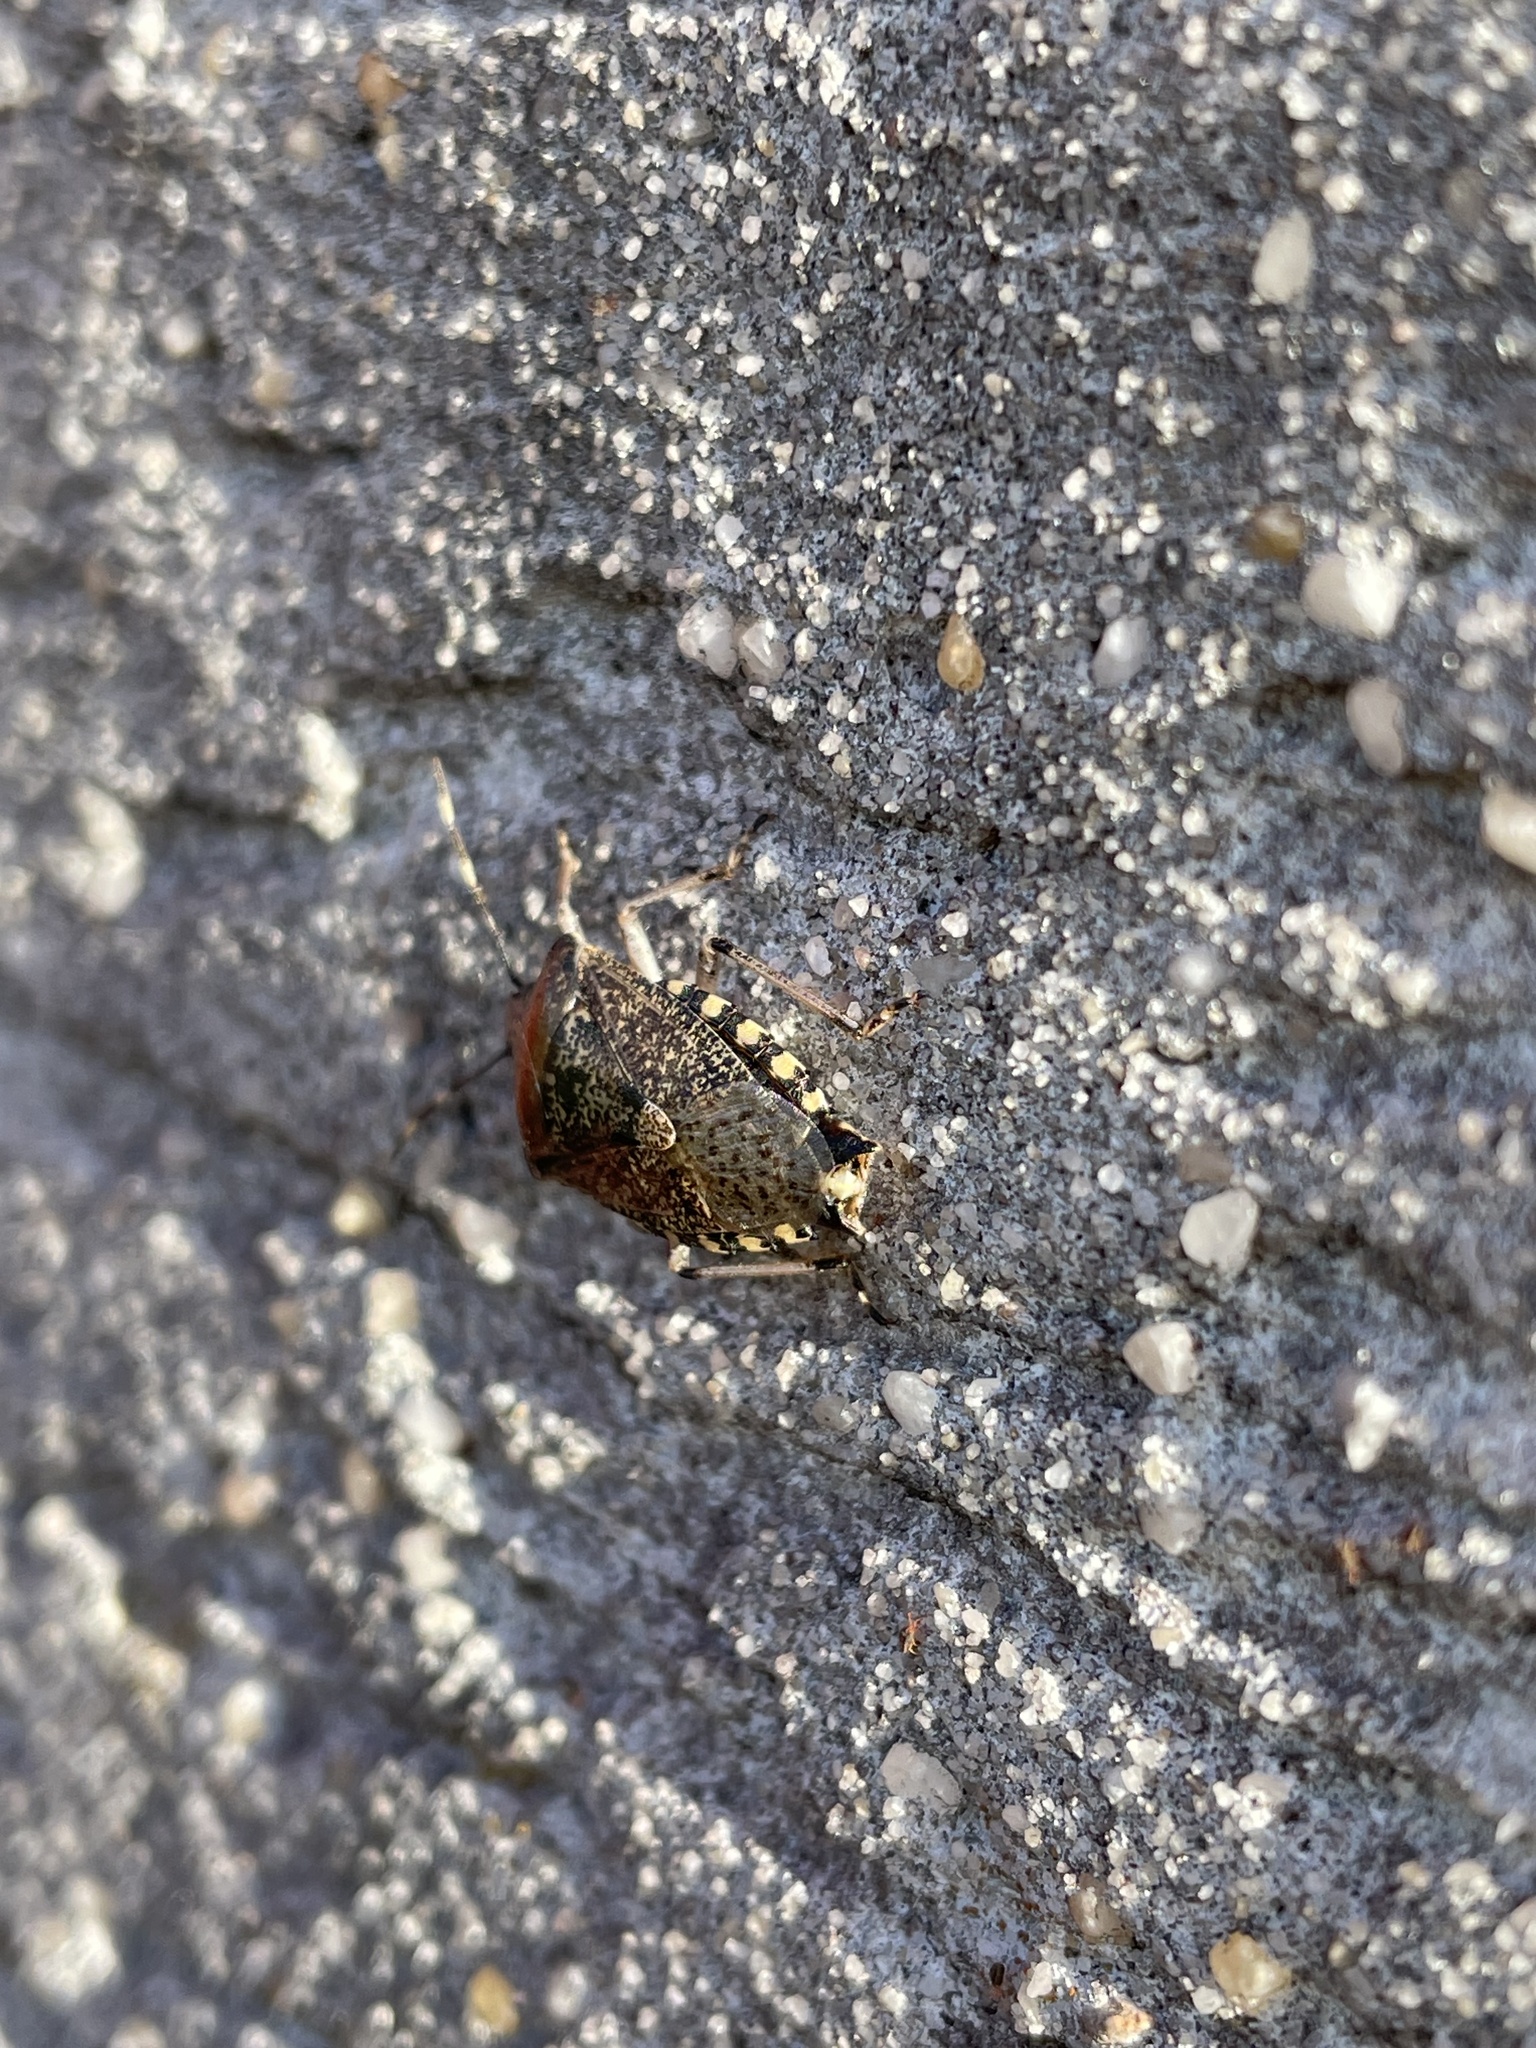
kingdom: Animalia
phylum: Arthropoda
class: Insecta
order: Hemiptera
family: Pentatomidae
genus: Rhaphigaster
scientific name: Rhaphigaster nebulosa
